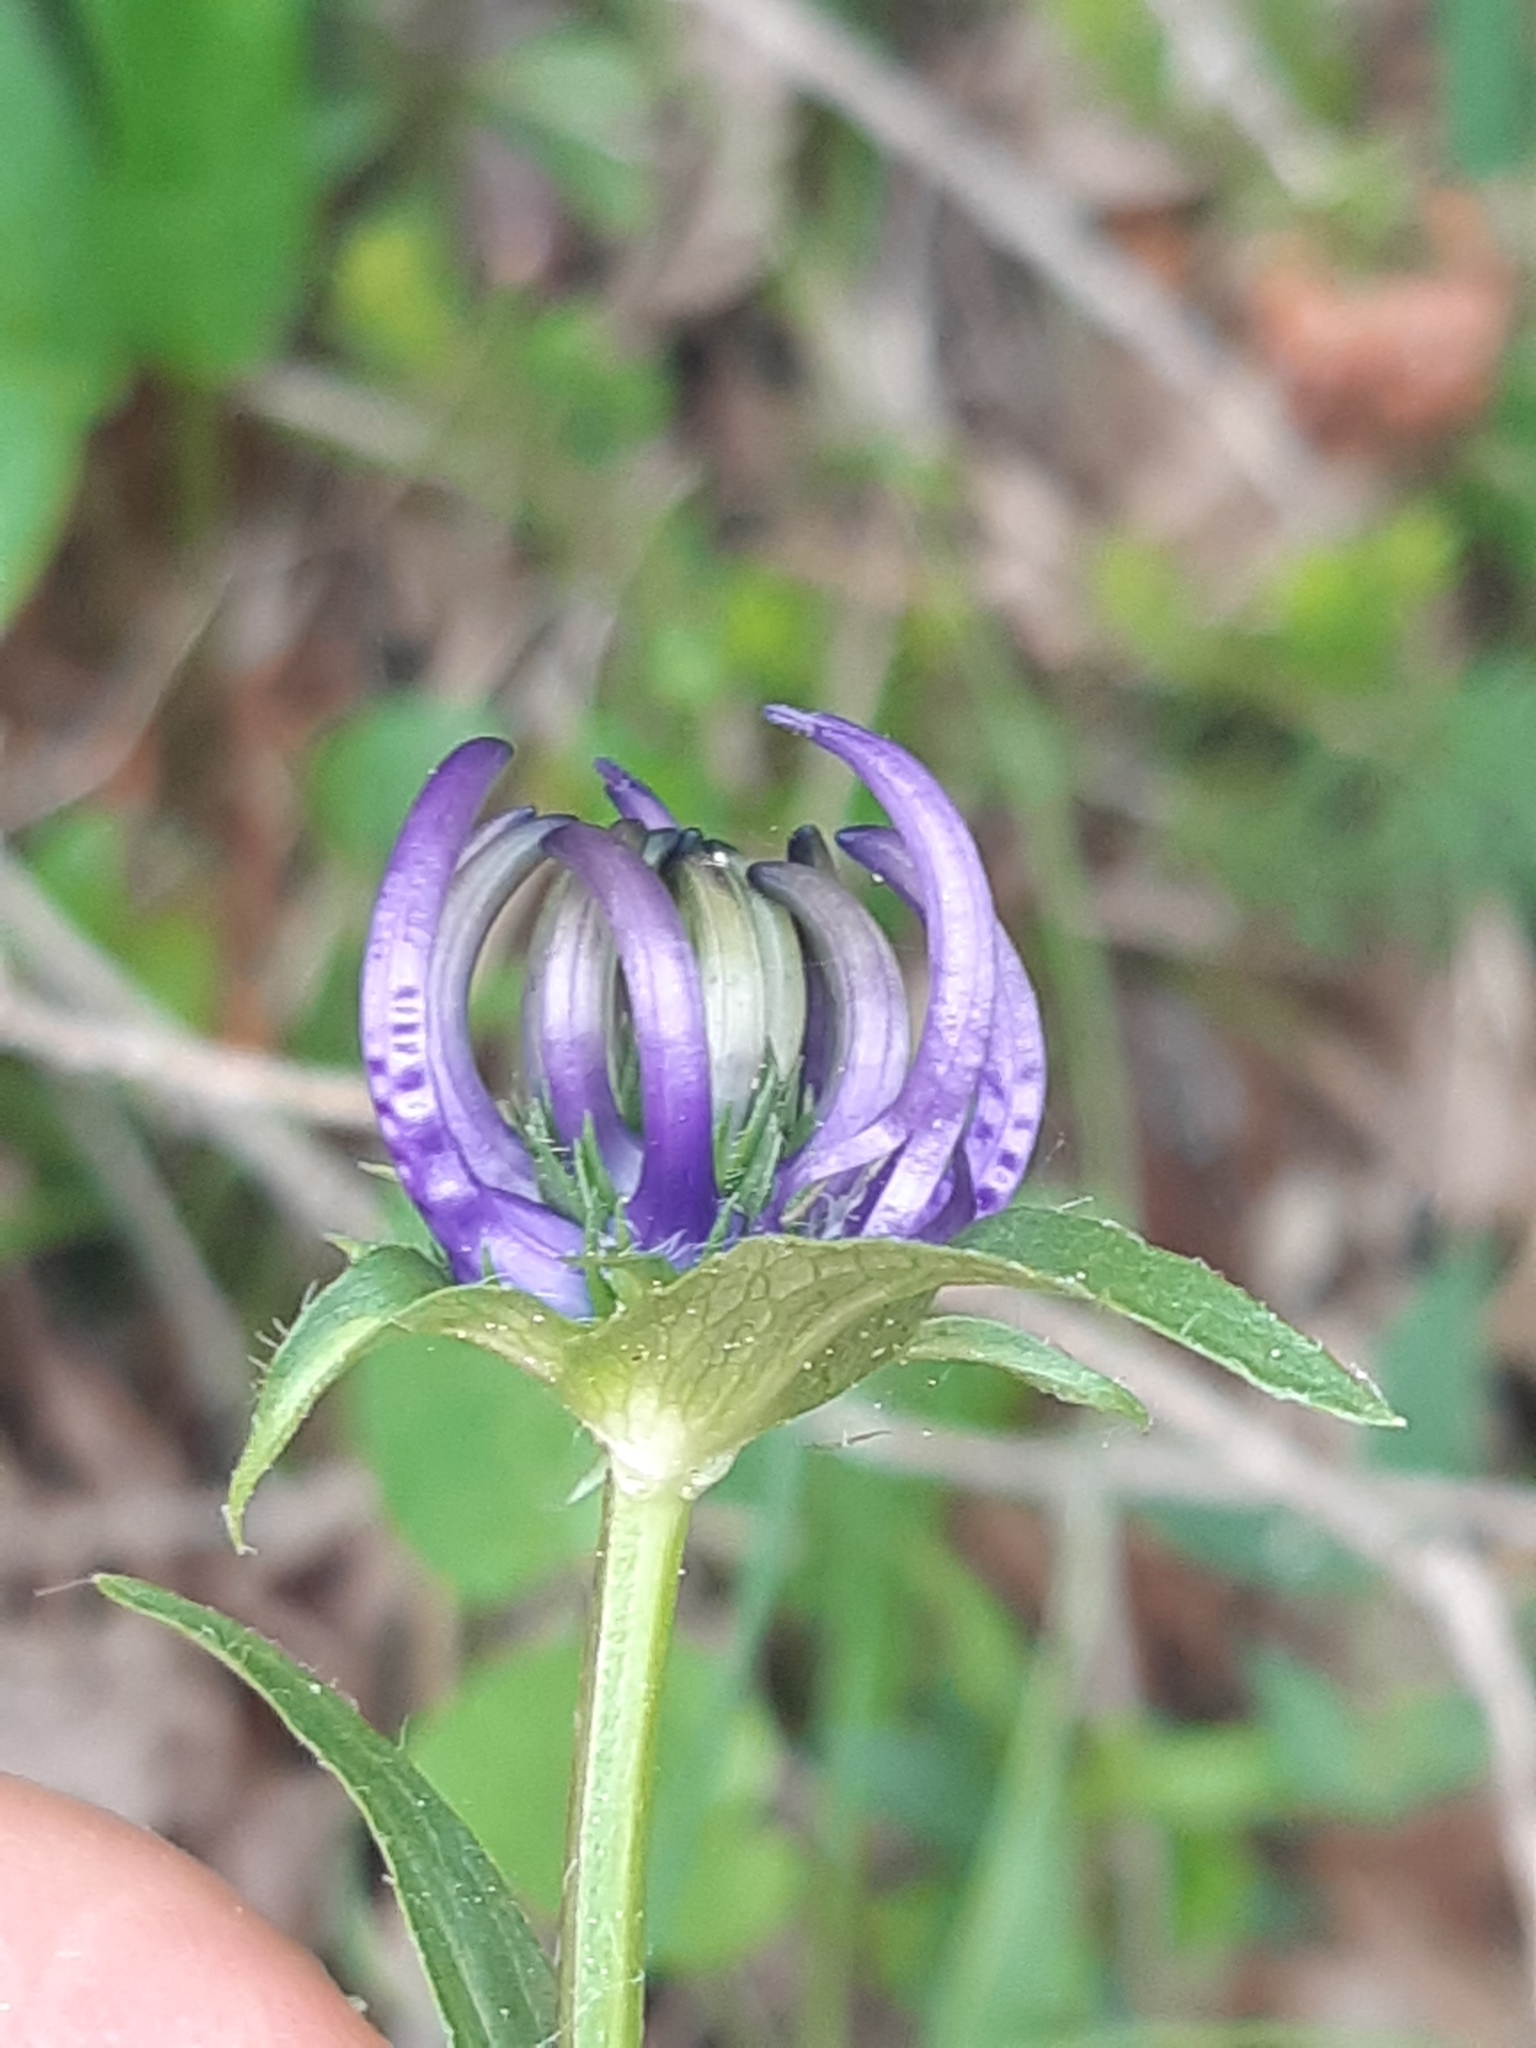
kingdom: Plantae
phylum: Tracheophyta
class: Magnoliopsida
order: Asterales
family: Campanulaceae
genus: Phyteuma
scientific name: Phyteuma orbiculare
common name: Round-headed rampion
